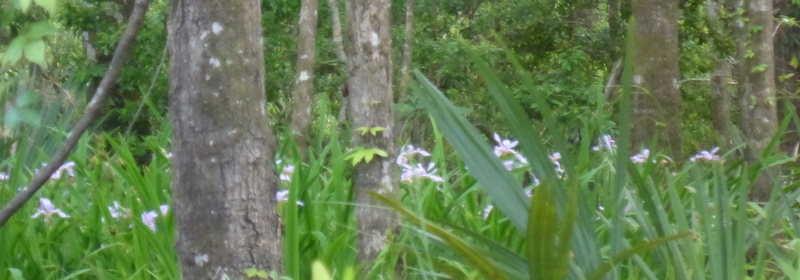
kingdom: Plantae
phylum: Tracheophyta
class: Liliopsida
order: Asparagales
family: Iridaceae
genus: Iris
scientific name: Iris virginica
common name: Southern blue flag
